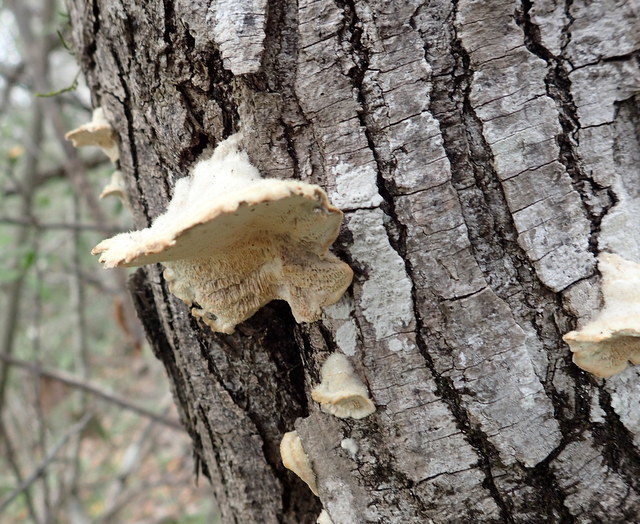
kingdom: Fungi
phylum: Basidiomycota
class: Agaricomycetes
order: Polyporales
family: Polyporaceae
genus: Trametes
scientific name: Trametes hirsuta
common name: Hairy bracket
